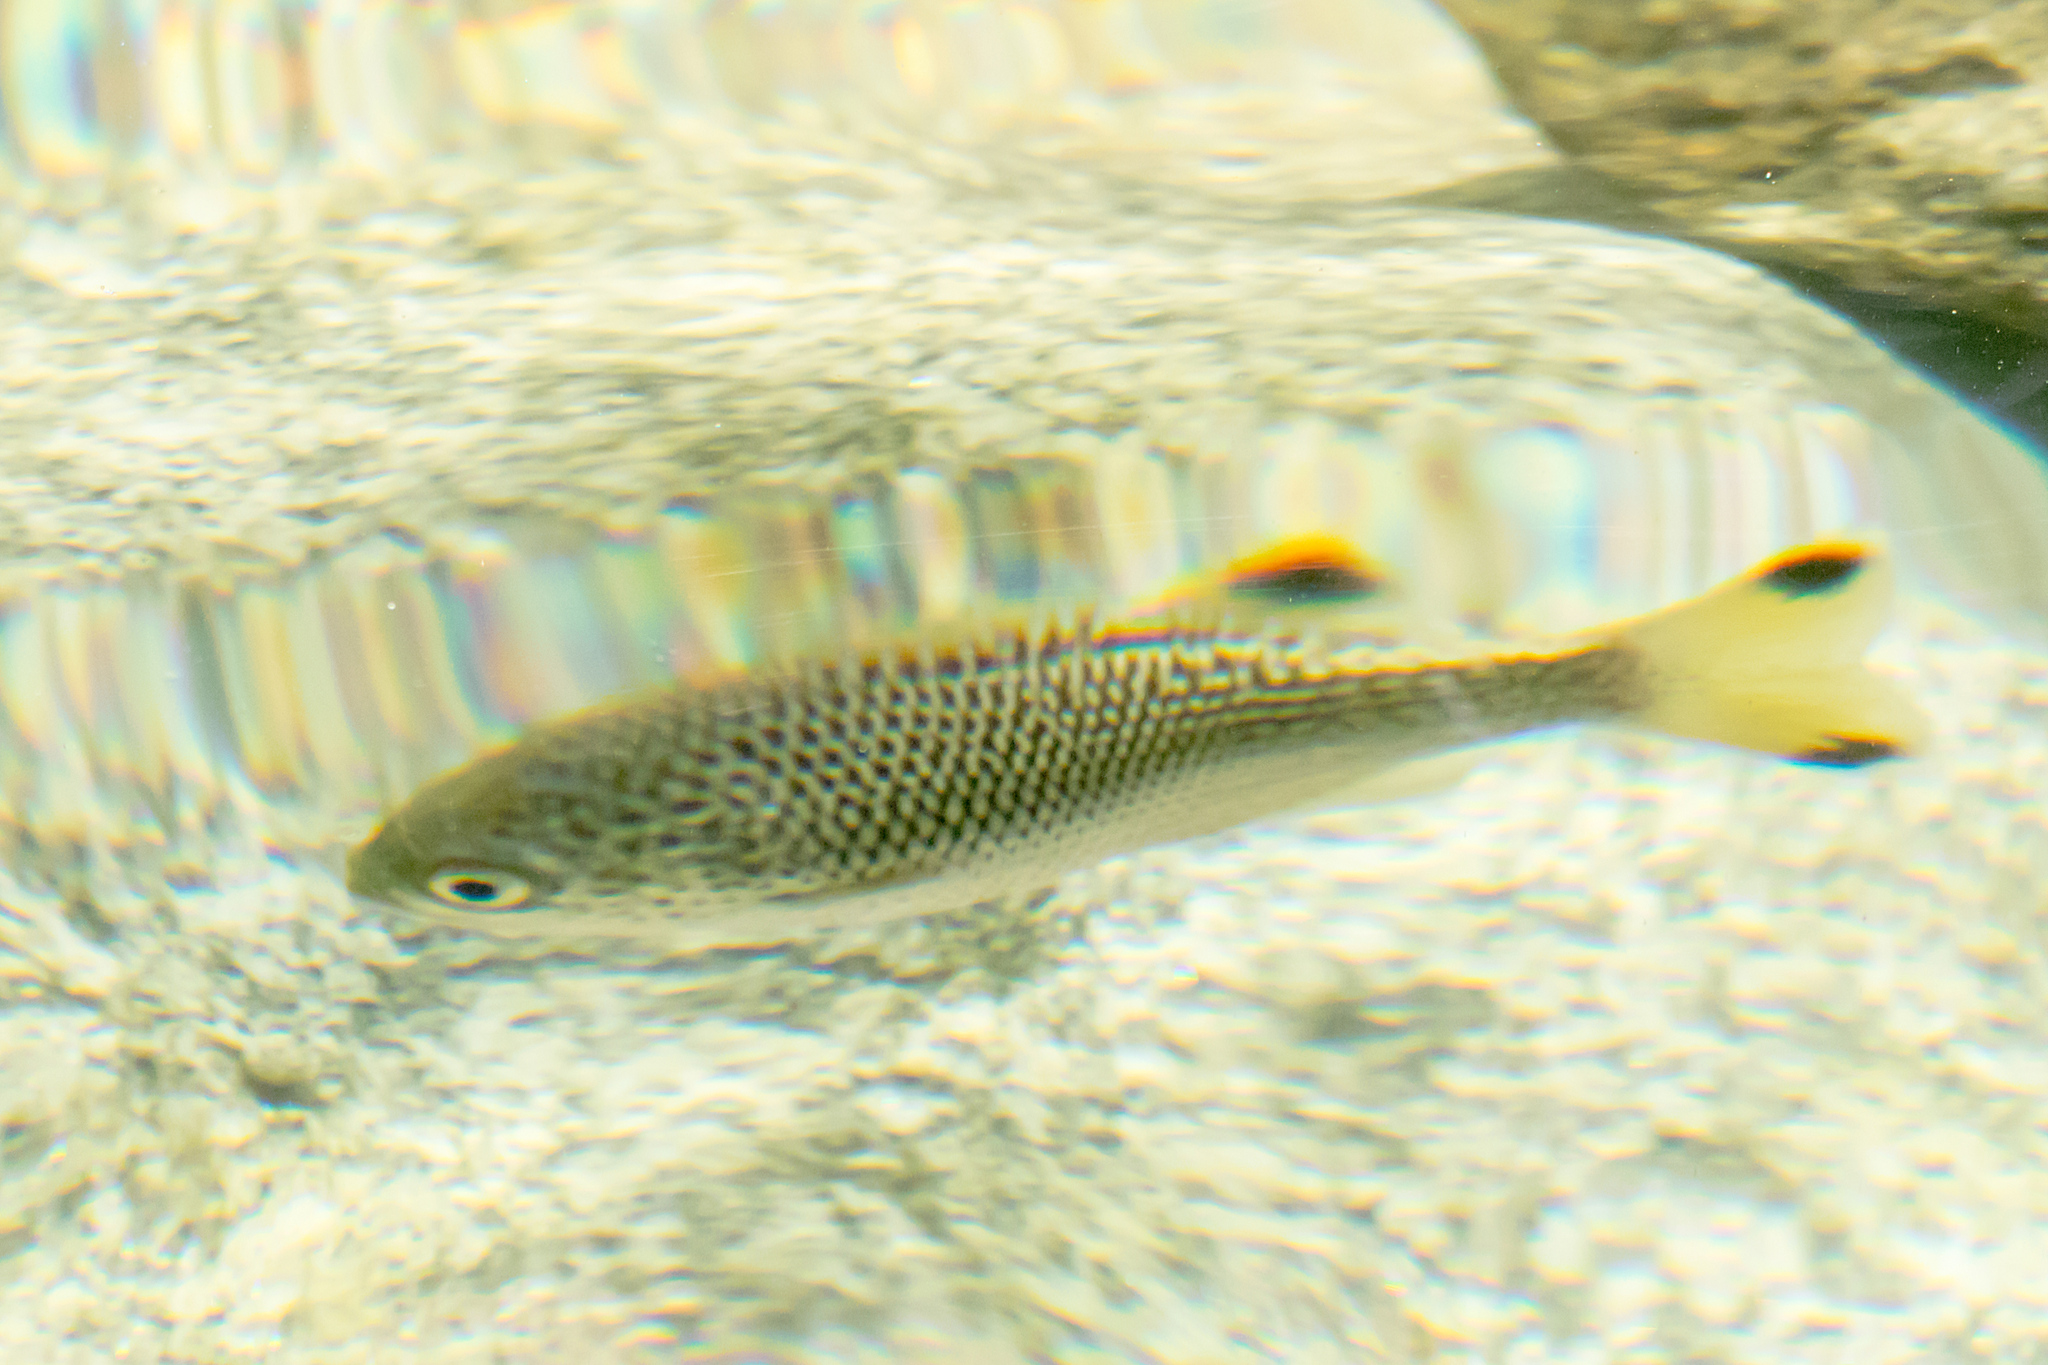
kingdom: Animalia
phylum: Chordata
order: Perciformes
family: Kuhliidae
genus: Kuhlia
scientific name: Kuhlia rupestris
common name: Rock flagtail
